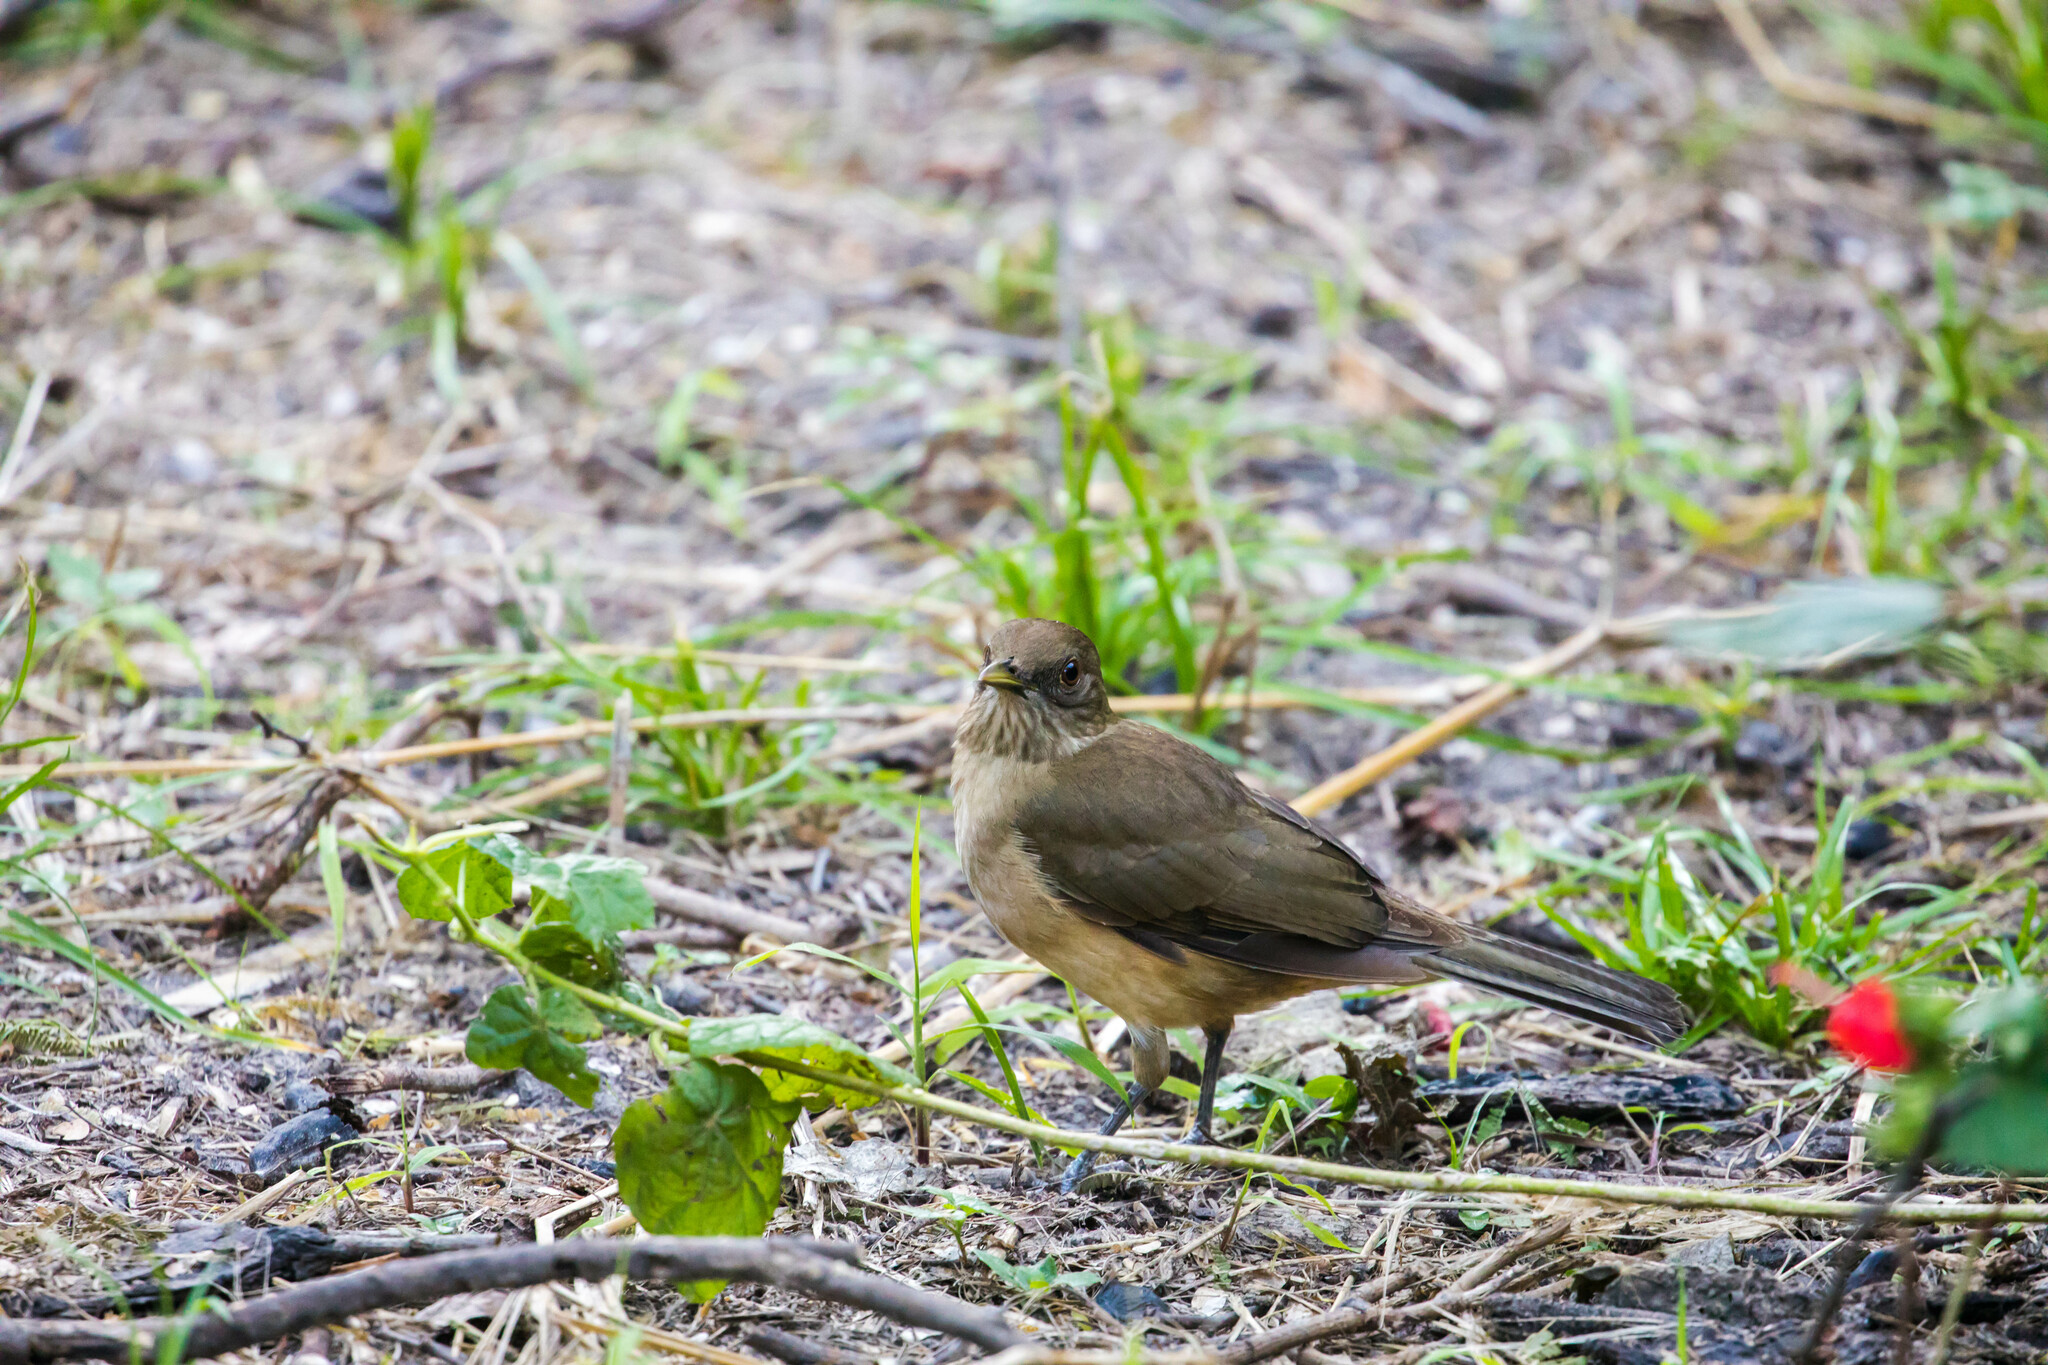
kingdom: Animalia
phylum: Chordata
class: Aves
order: Passeriformes
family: Turdidae
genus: Turdus
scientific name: Turdus grayi
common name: Clay-colored thrush
